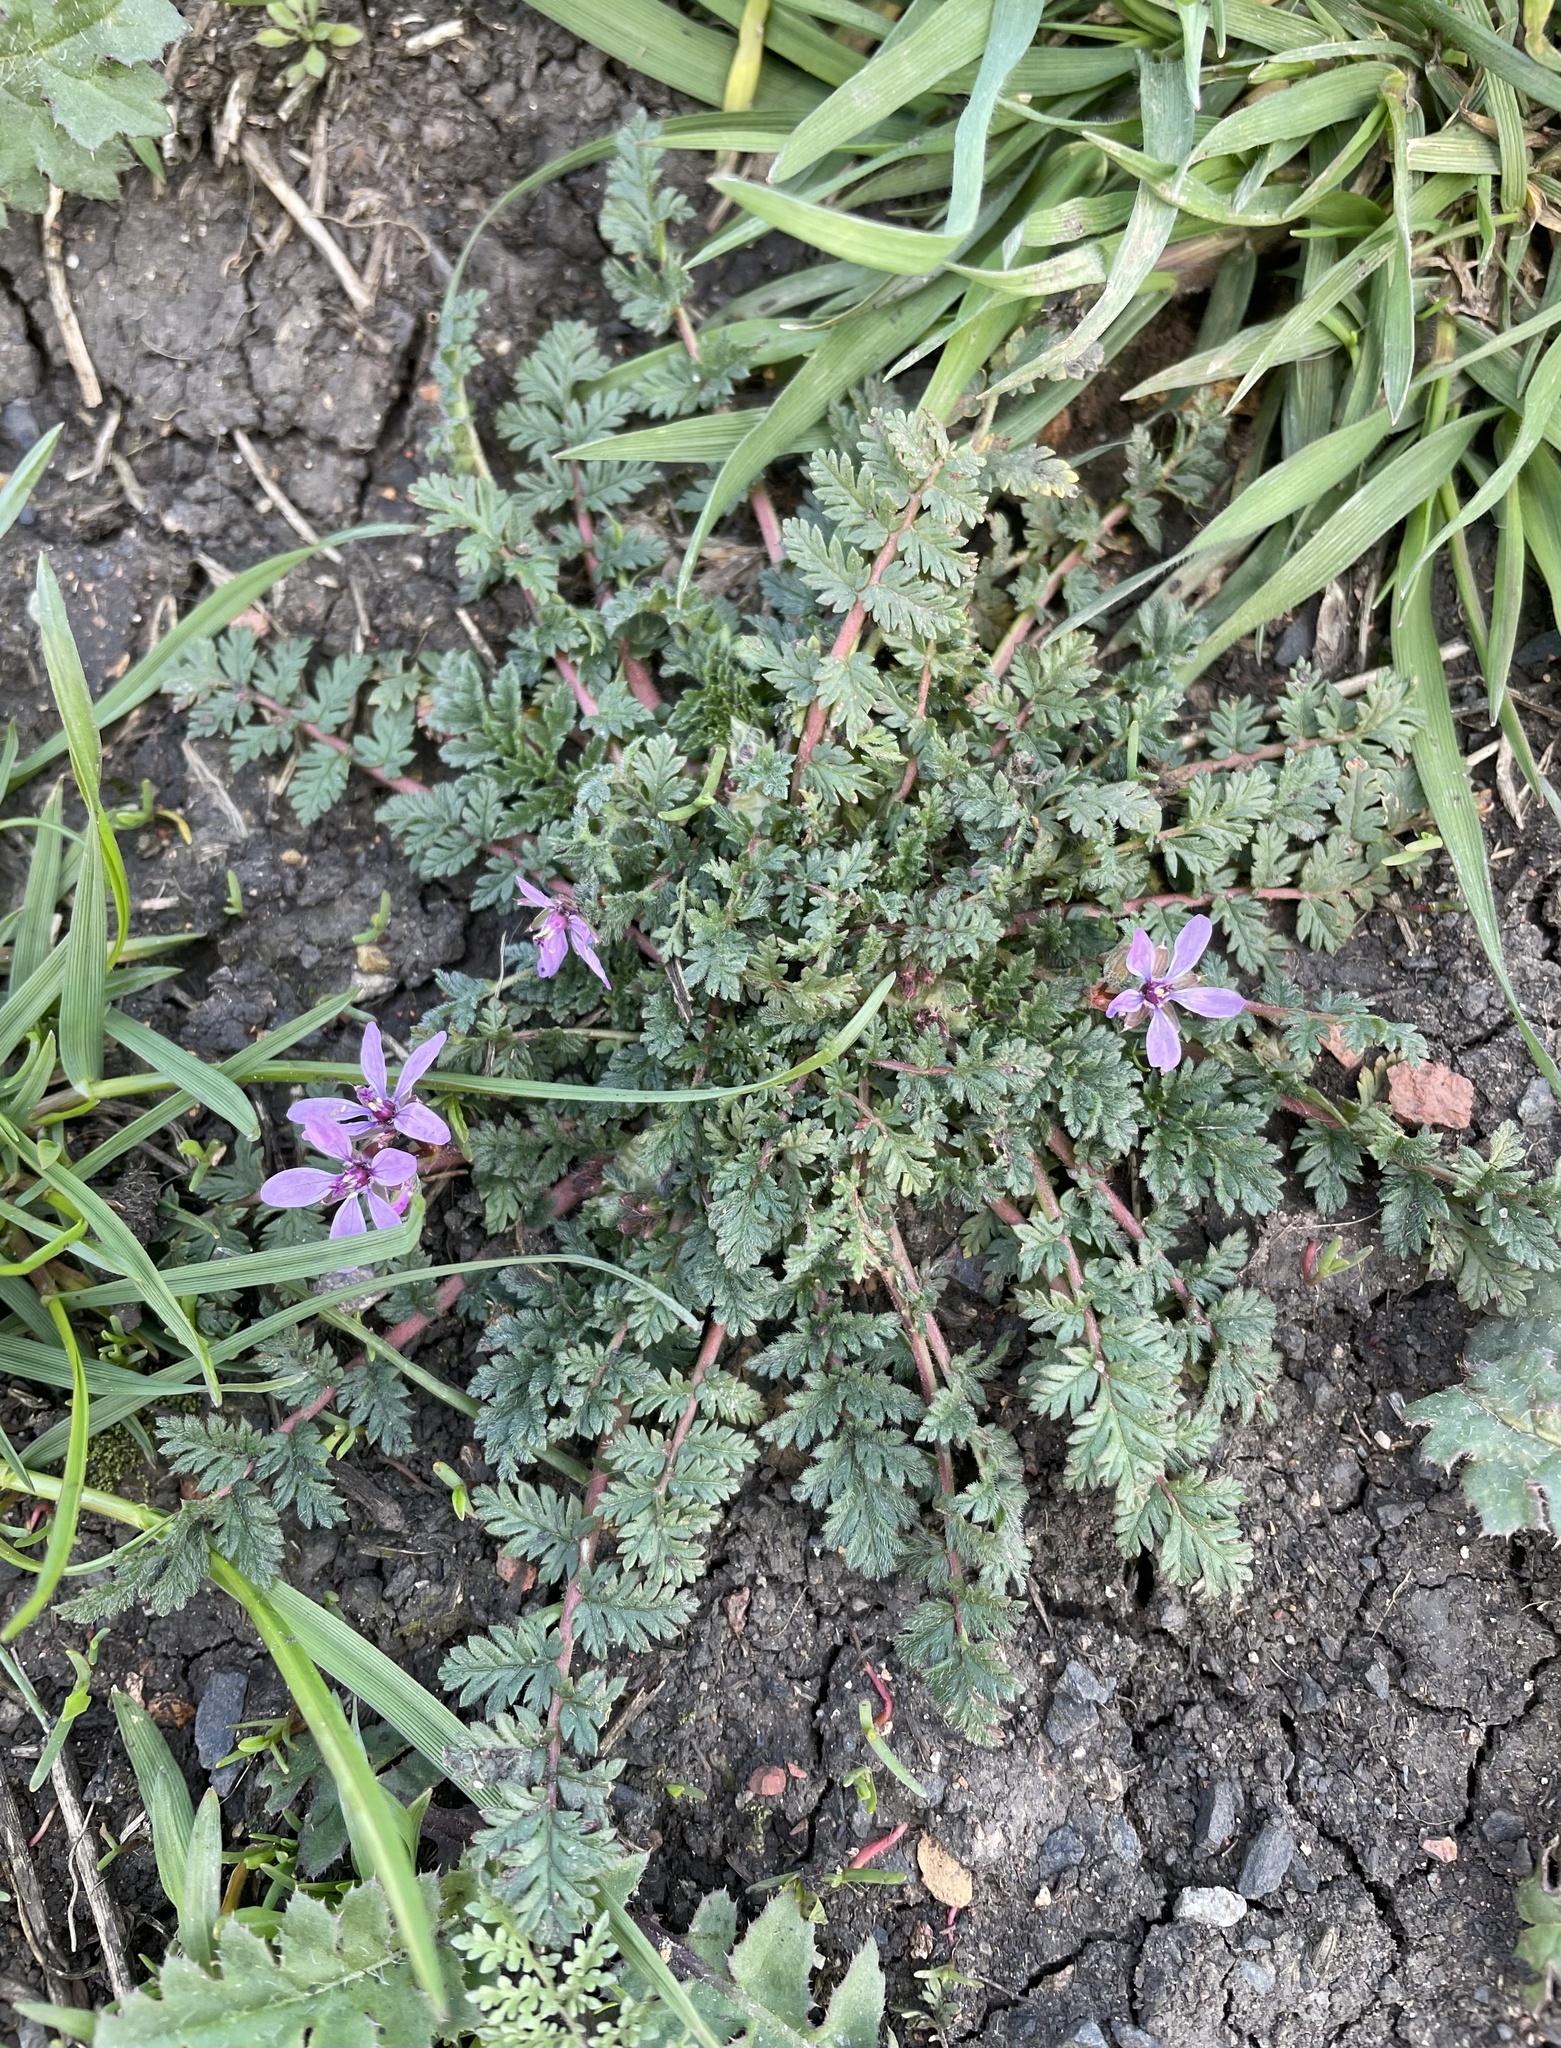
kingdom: Plantae
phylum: Tracheophyta
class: Magnoliopsida
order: Geraniales
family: Geraniaceae
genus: Erodium
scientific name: Erodium cicutarium
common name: Common stork's-bill
